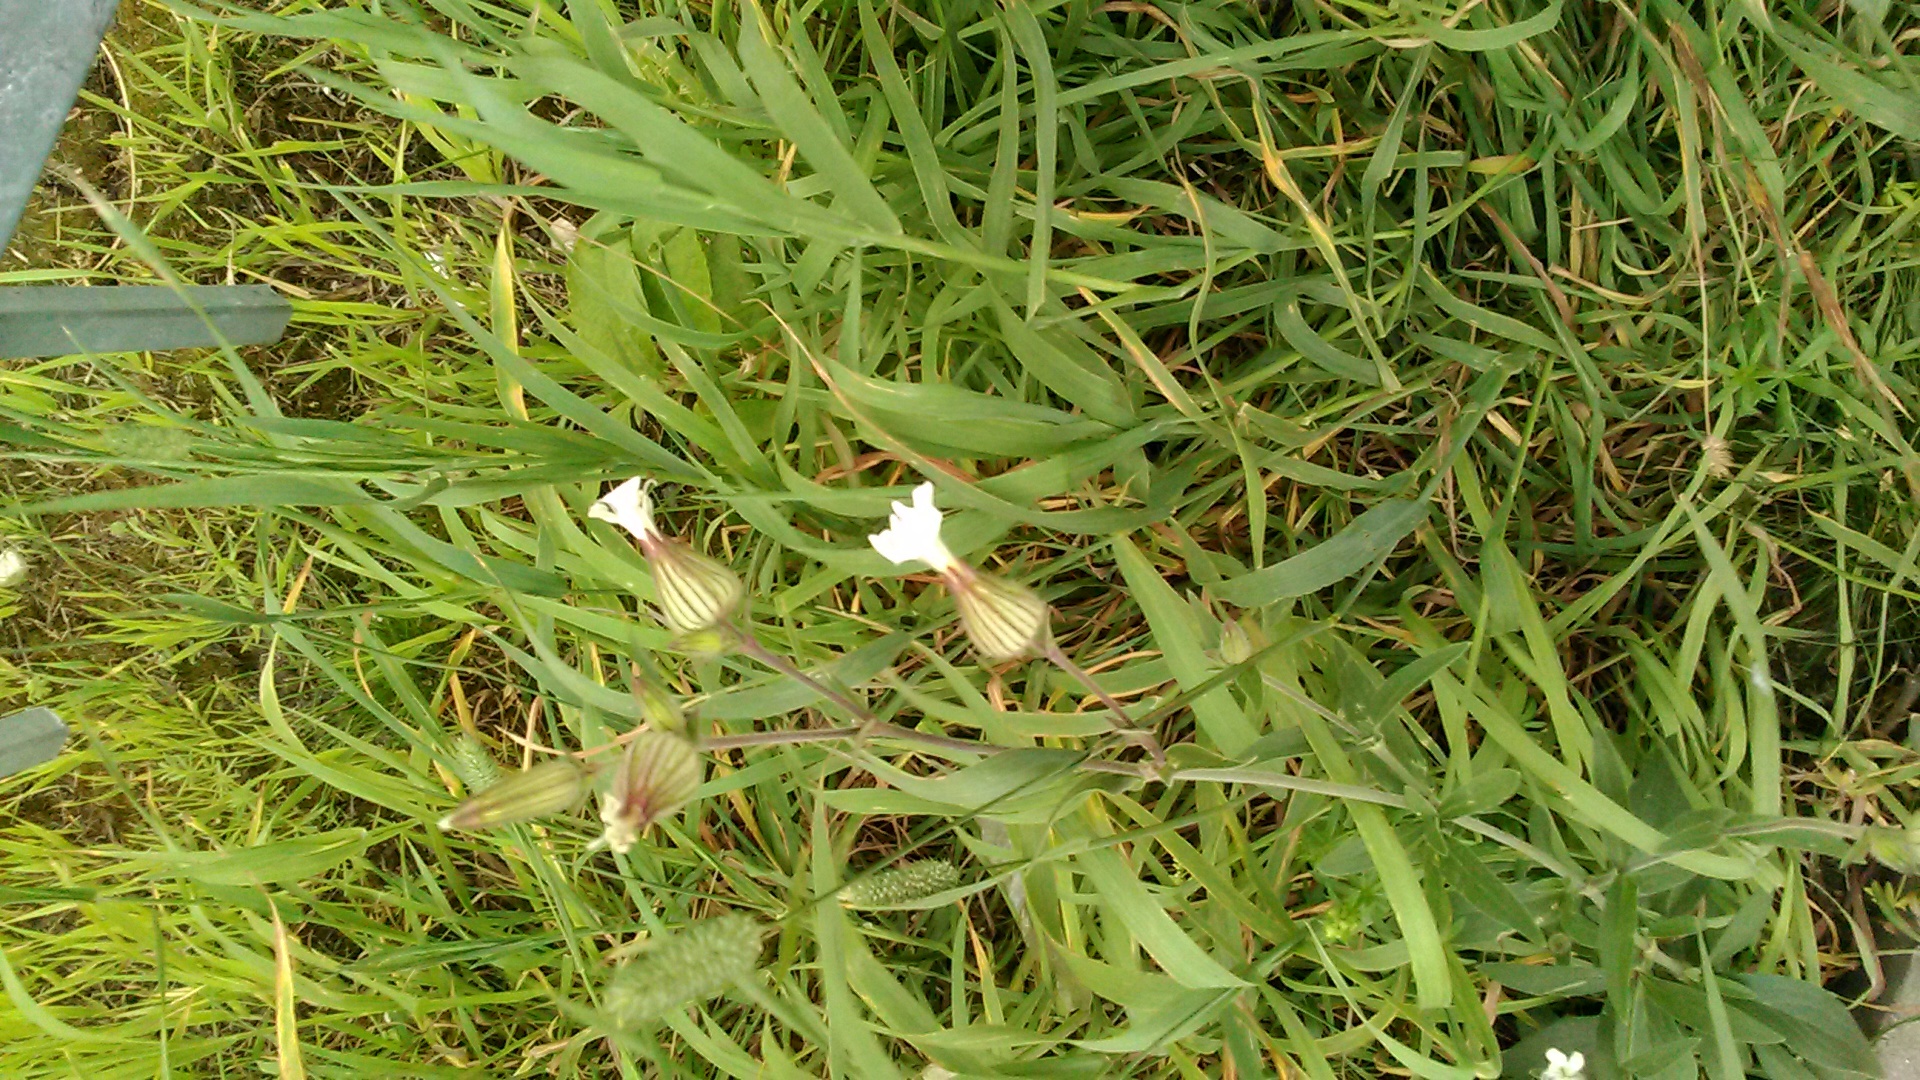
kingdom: Plantae
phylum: Tracheophyta
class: Magnoliopsida
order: Caryophyllales
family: Caryophyllaceae
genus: Silene
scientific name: Silene latifolia
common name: White campion
